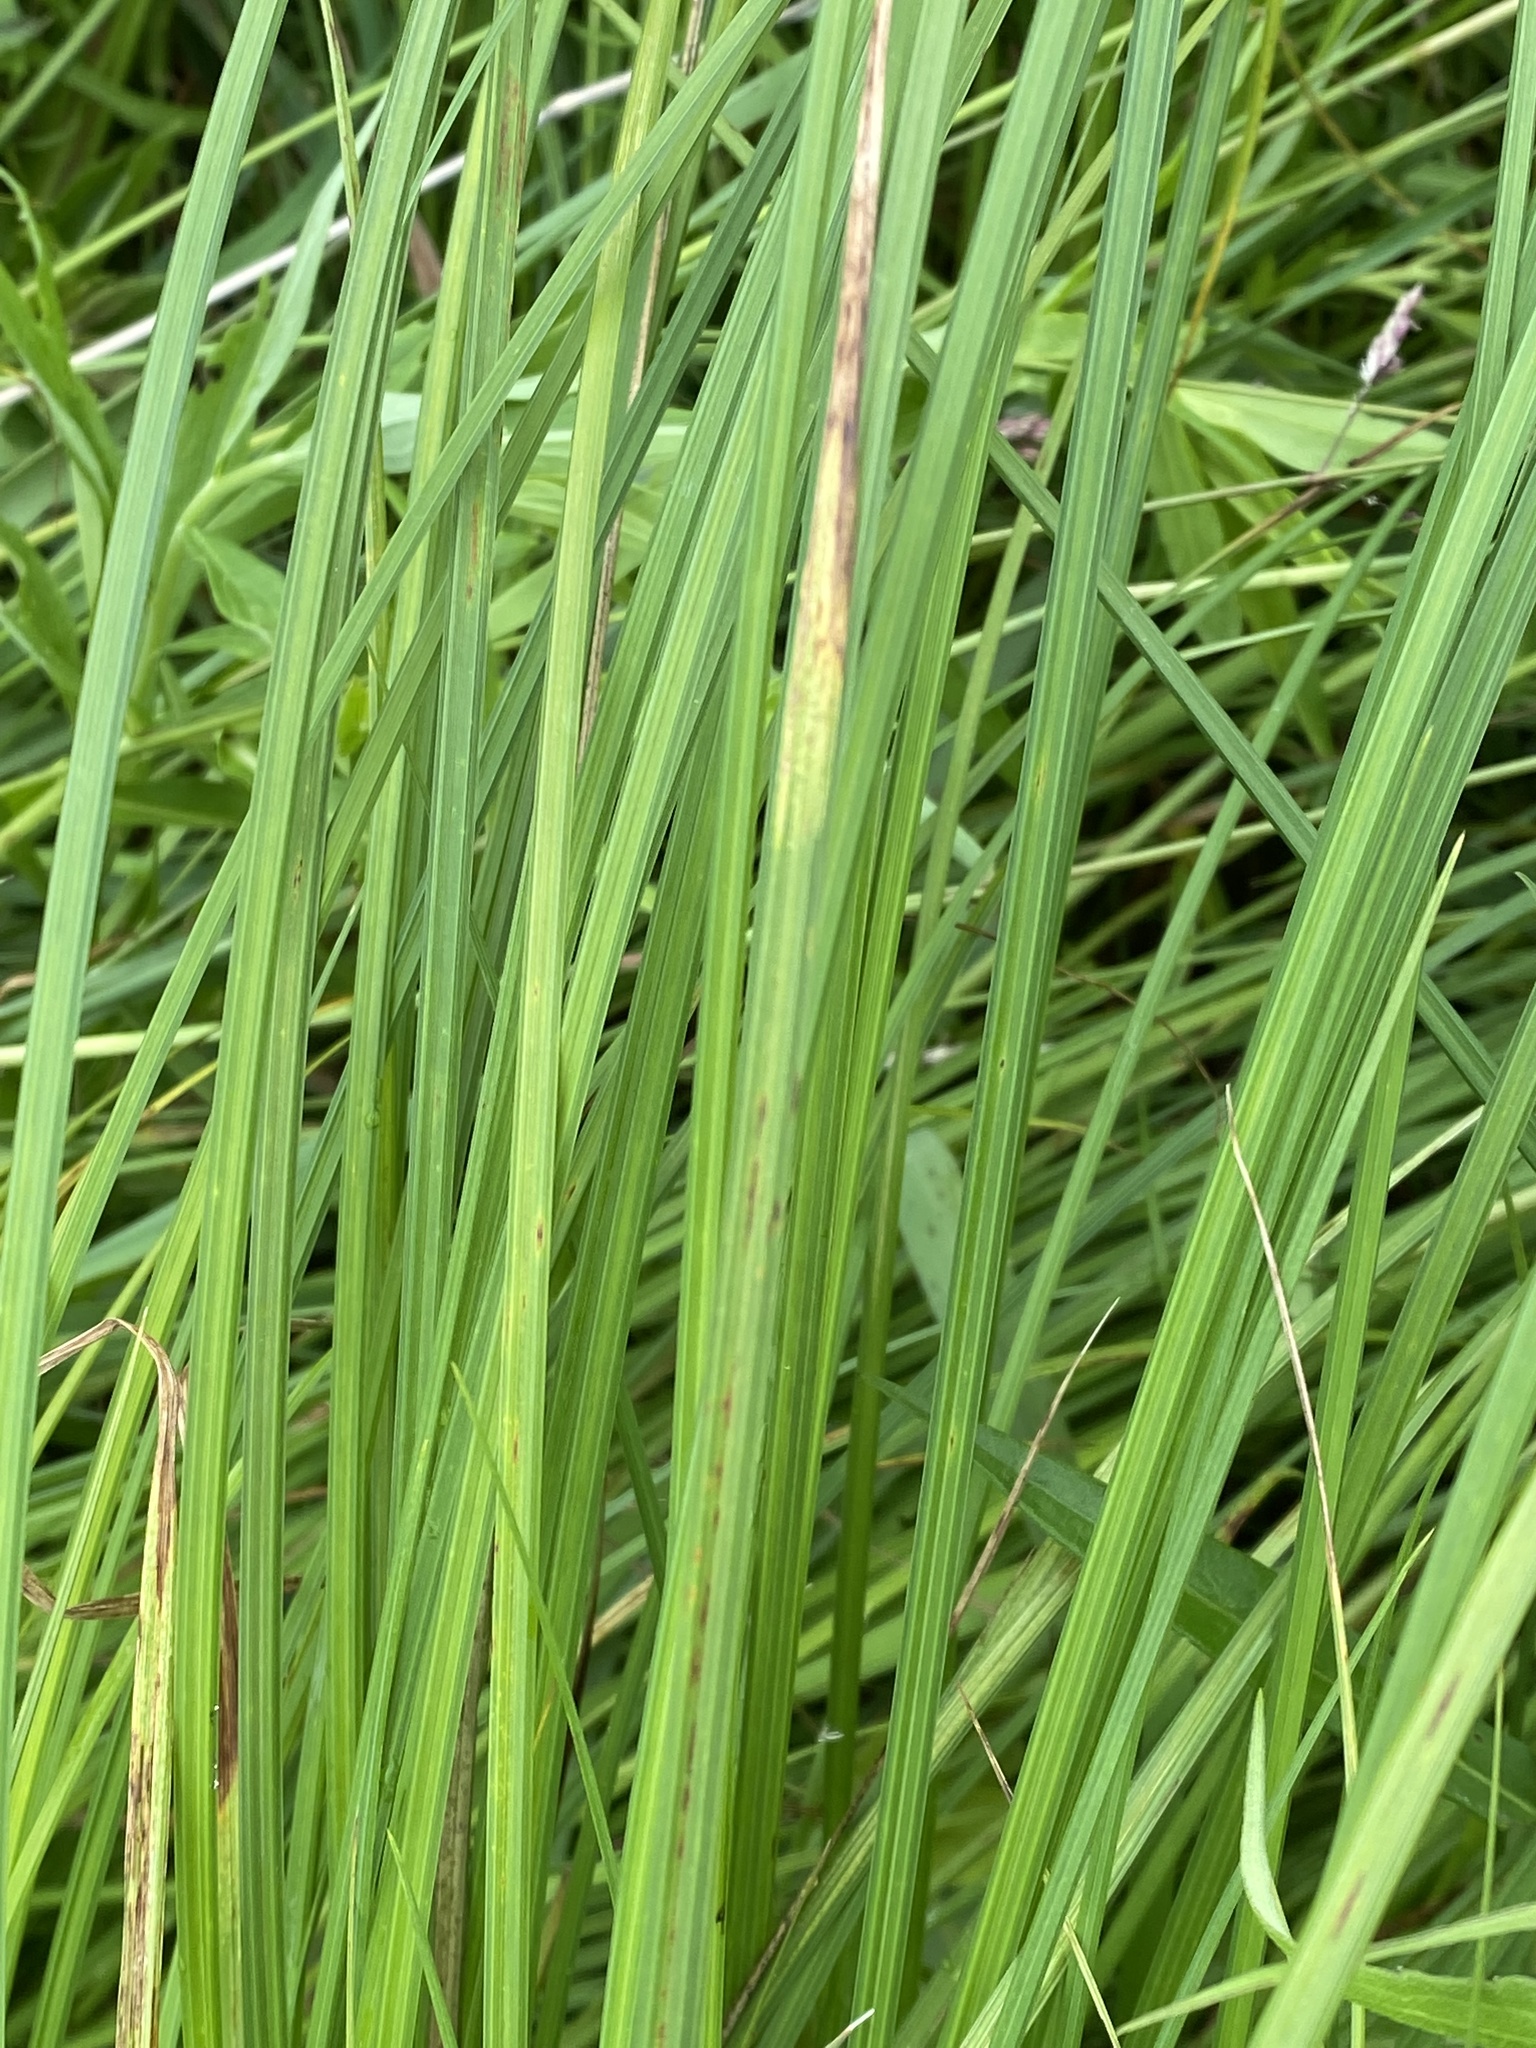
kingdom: Plantae
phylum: Tracheophyta
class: Liliopsida
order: Poales
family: Cyperaceae
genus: Carex
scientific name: Carex stipata
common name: Awl-fruited sedge
